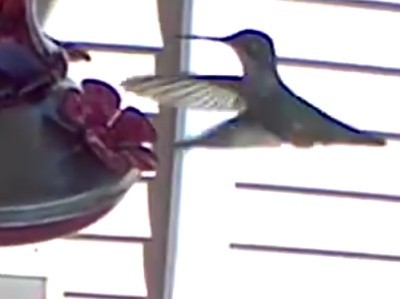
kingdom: Animalia
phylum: Chordata
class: Aves
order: Apodiformes
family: Trochilidae
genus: Archilochus
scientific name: Archilochus colubris
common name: Ruby-throated hummingbird
